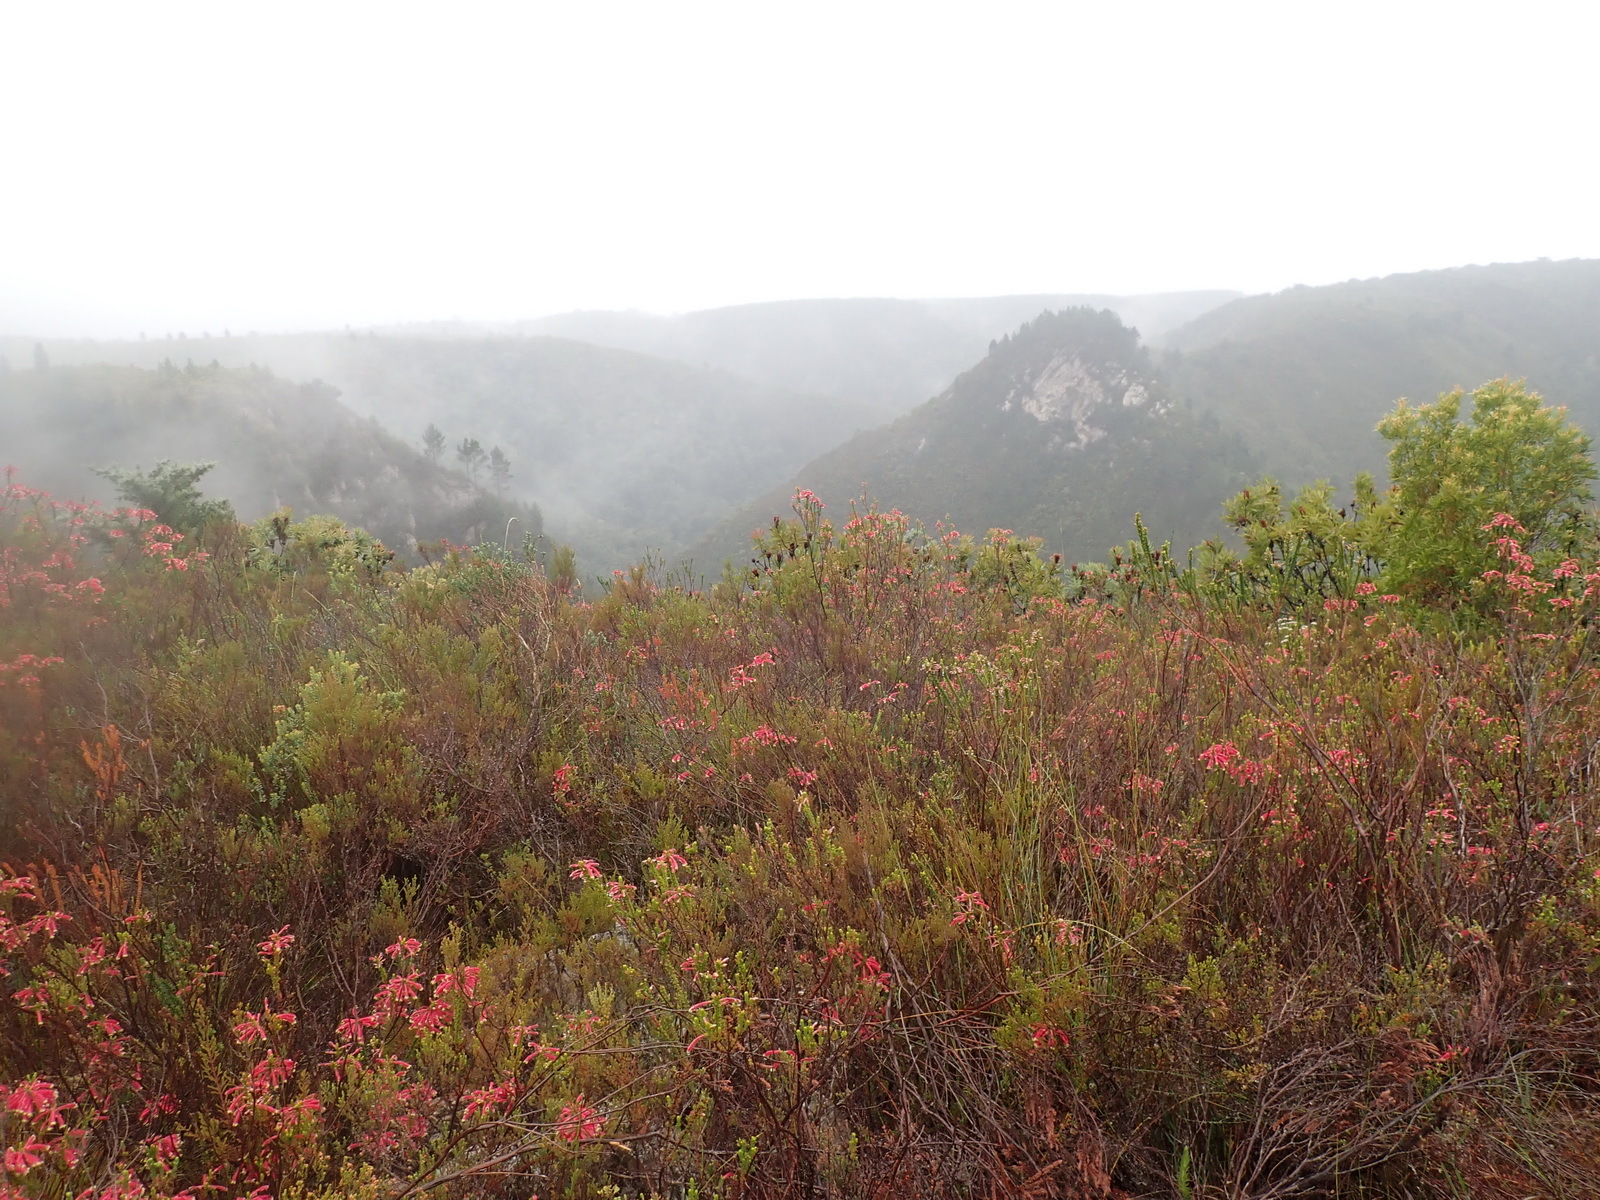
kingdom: Plantae
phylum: Tracheophyta
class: Magnoliopsida
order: Ericales
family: Ericaceae
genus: Erica
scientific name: Erica densifolia
